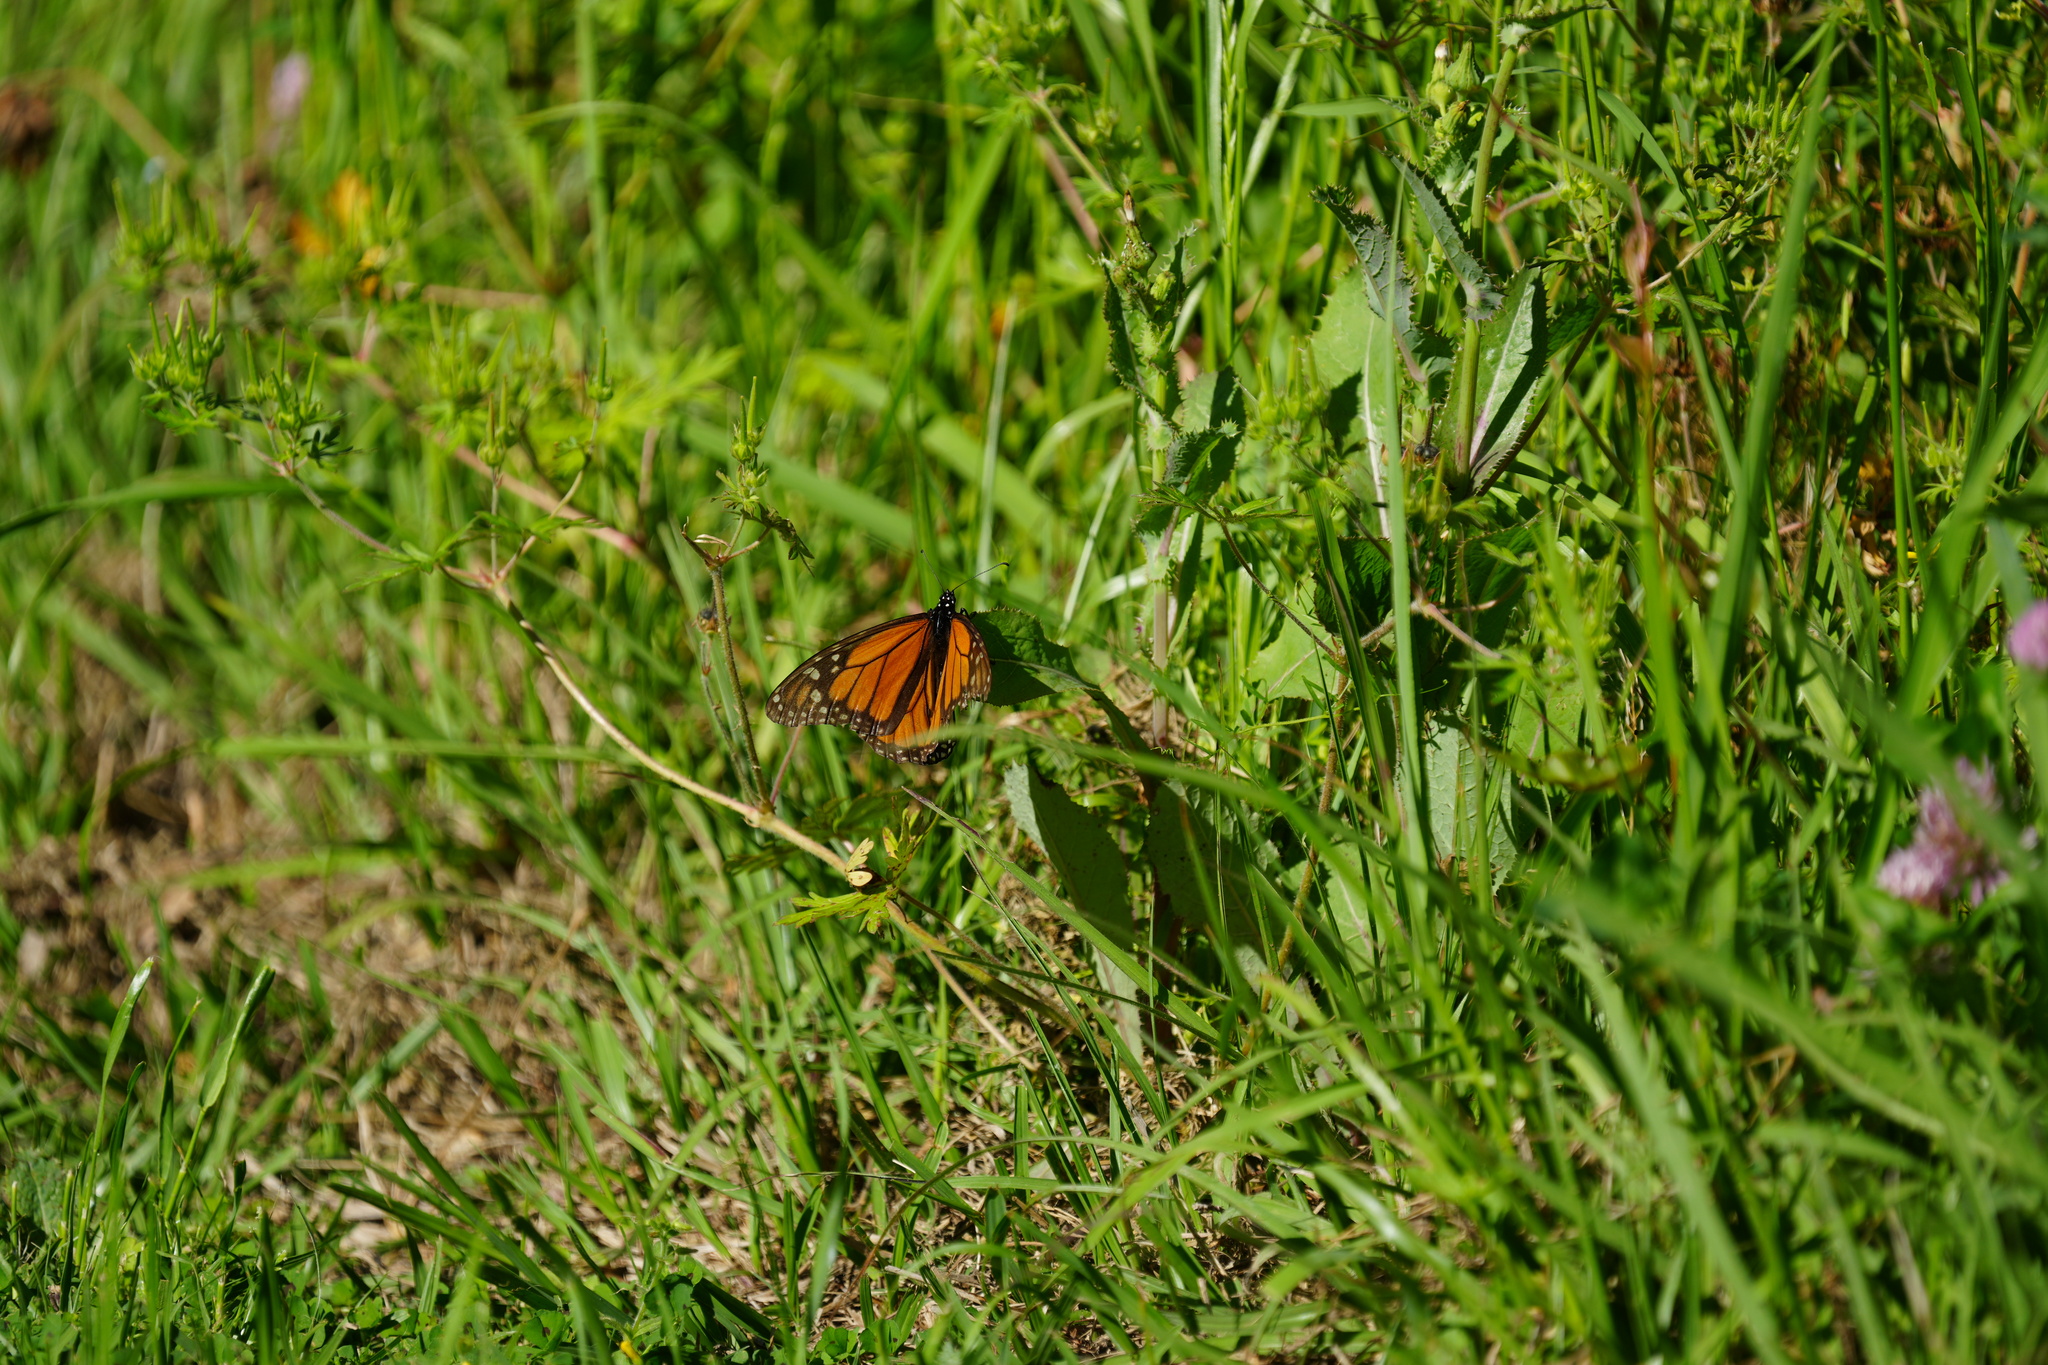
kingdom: Animalia
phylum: Arthropoda
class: Insecta
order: Lepidoptera
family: Nymphalidae
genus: Danaus
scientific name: Danaus plexippus
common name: Monarch
